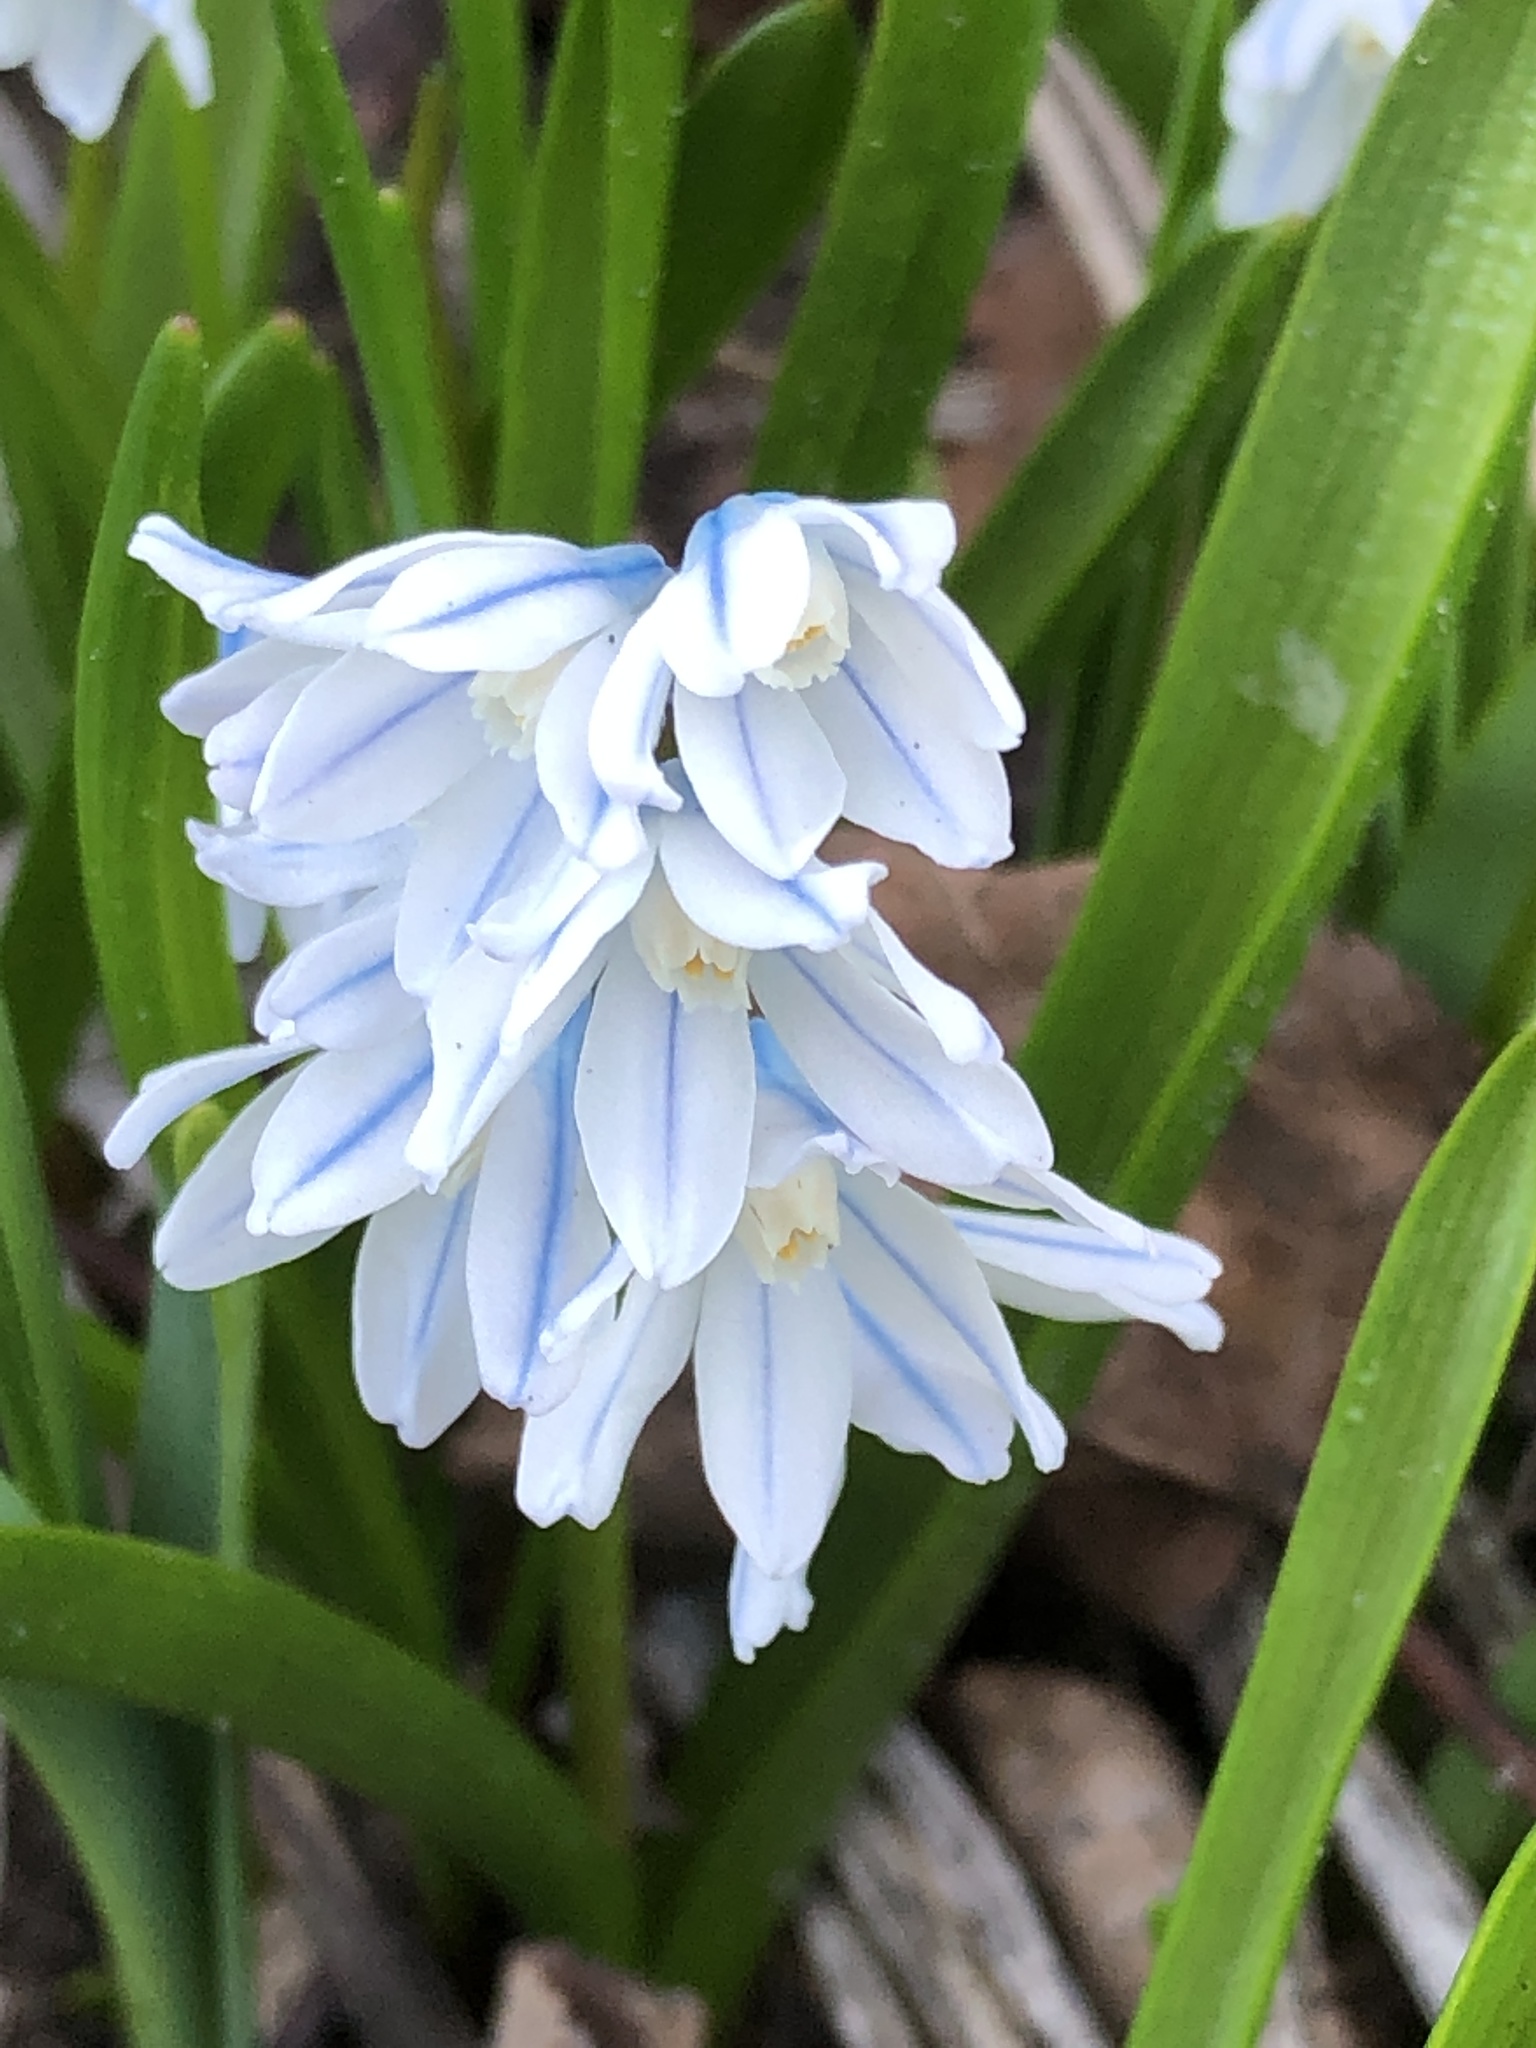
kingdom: Plantae
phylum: Tracheophyta
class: Liliopsida
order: Asparagales
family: Asparagaceae
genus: Puschkinia
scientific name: Puschkinia scilloides
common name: Striped squill
